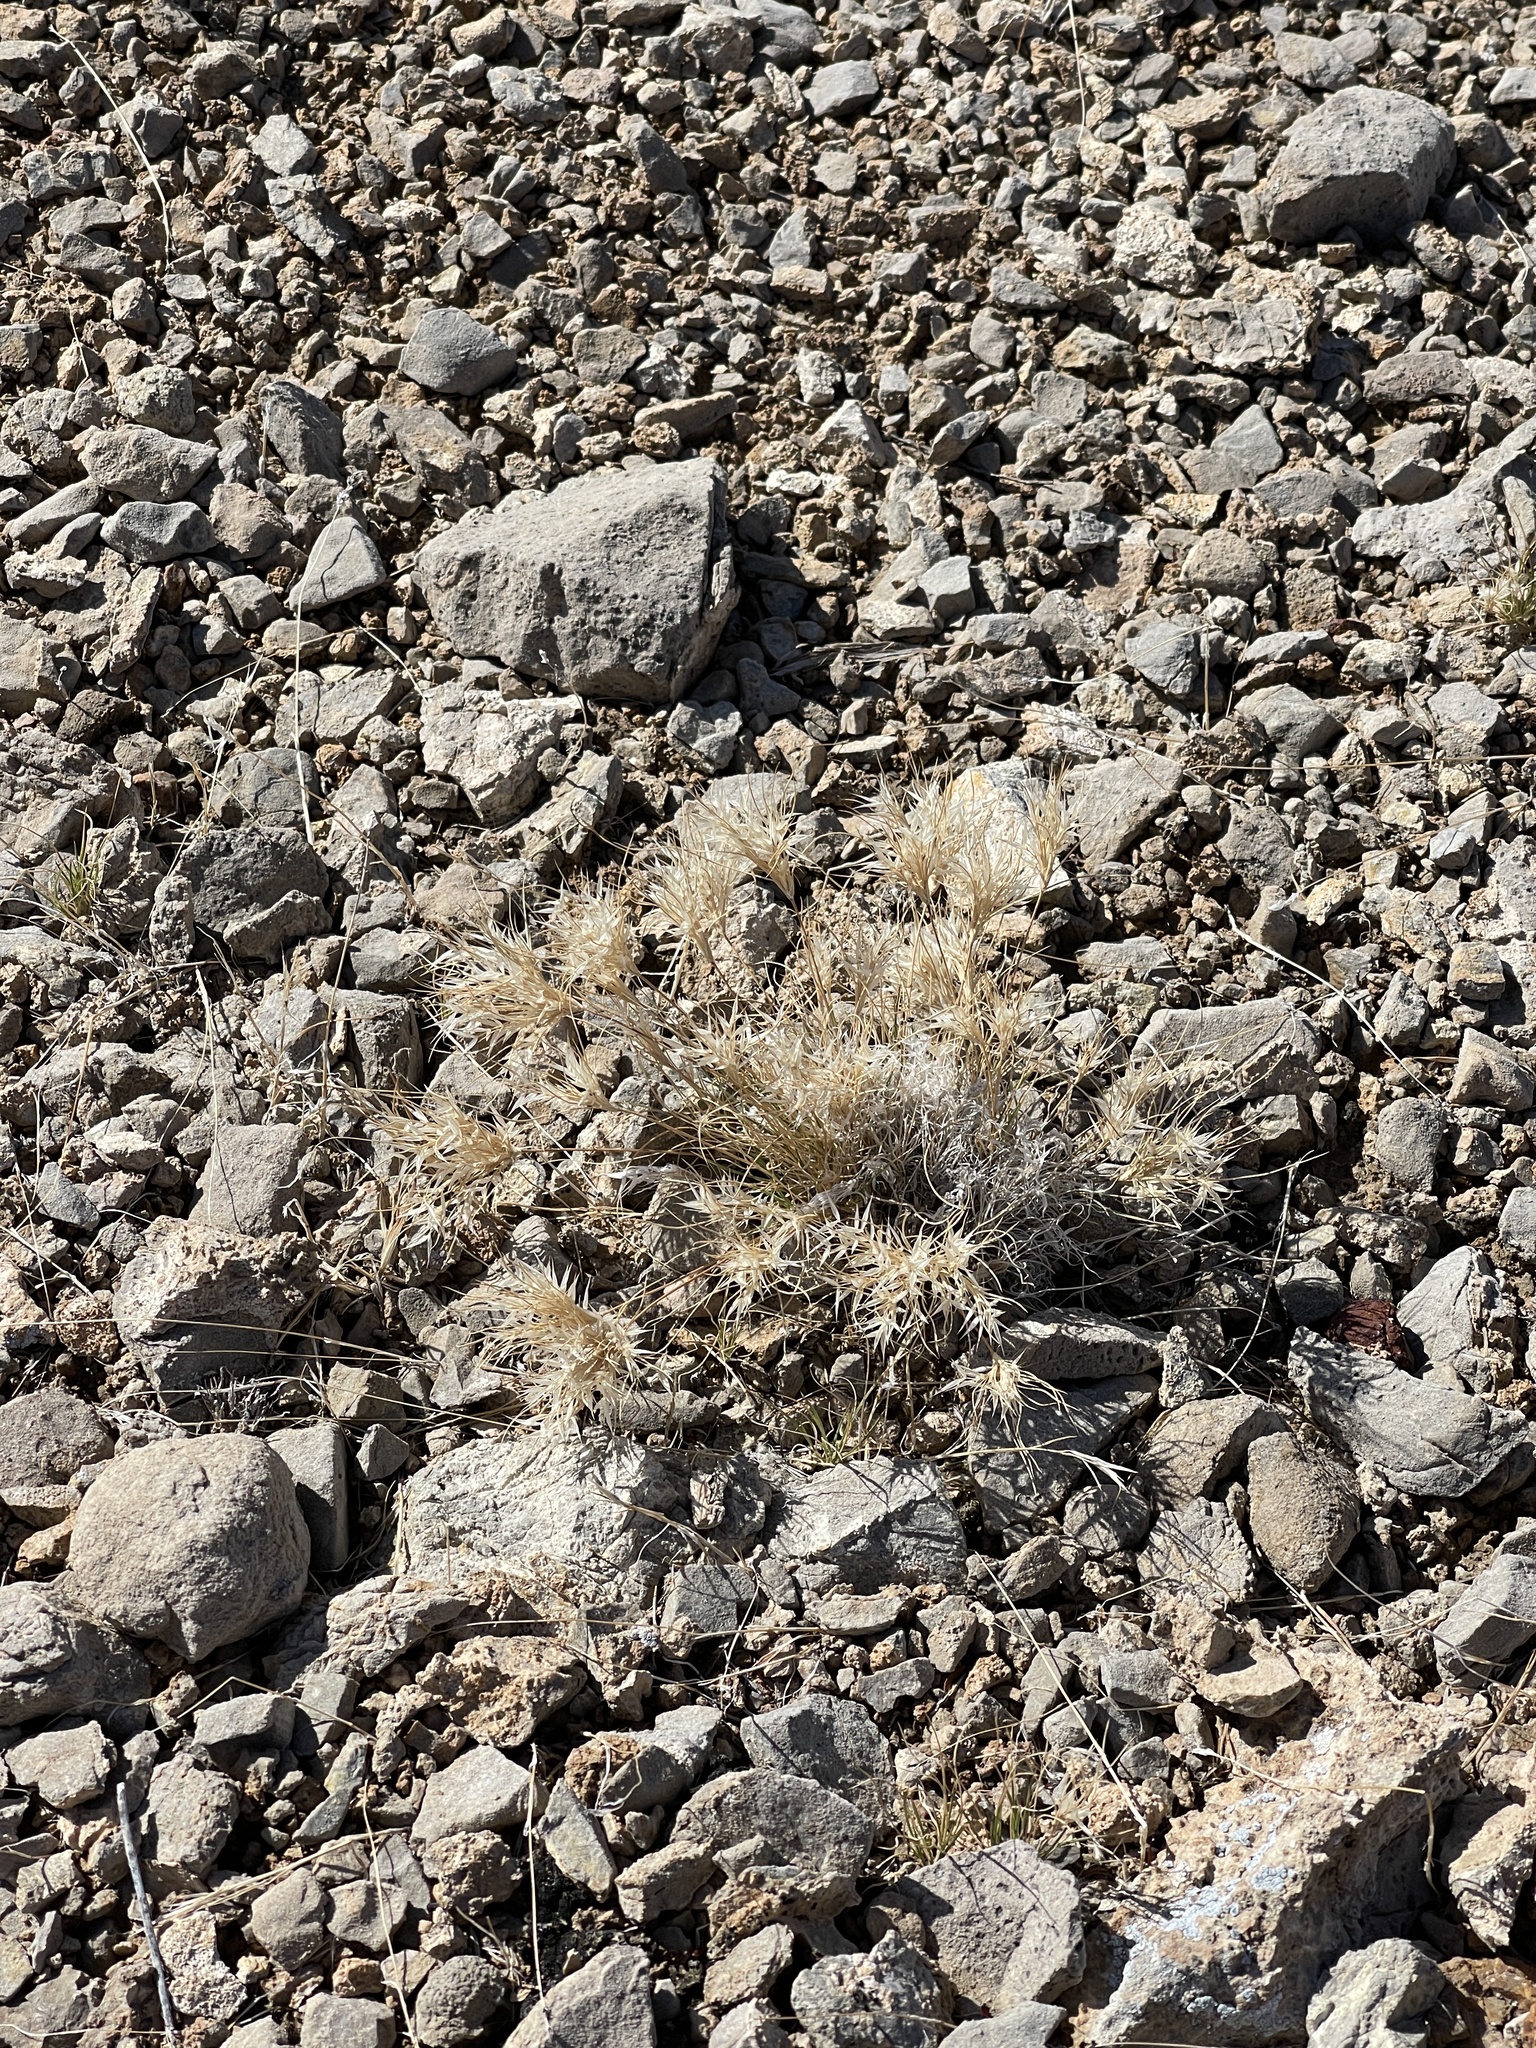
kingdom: Plantae
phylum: Tracheophyta
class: Liliopsida
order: Poales
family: Poaceae
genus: Dasyochloa
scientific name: Dasyochloa pulchella
